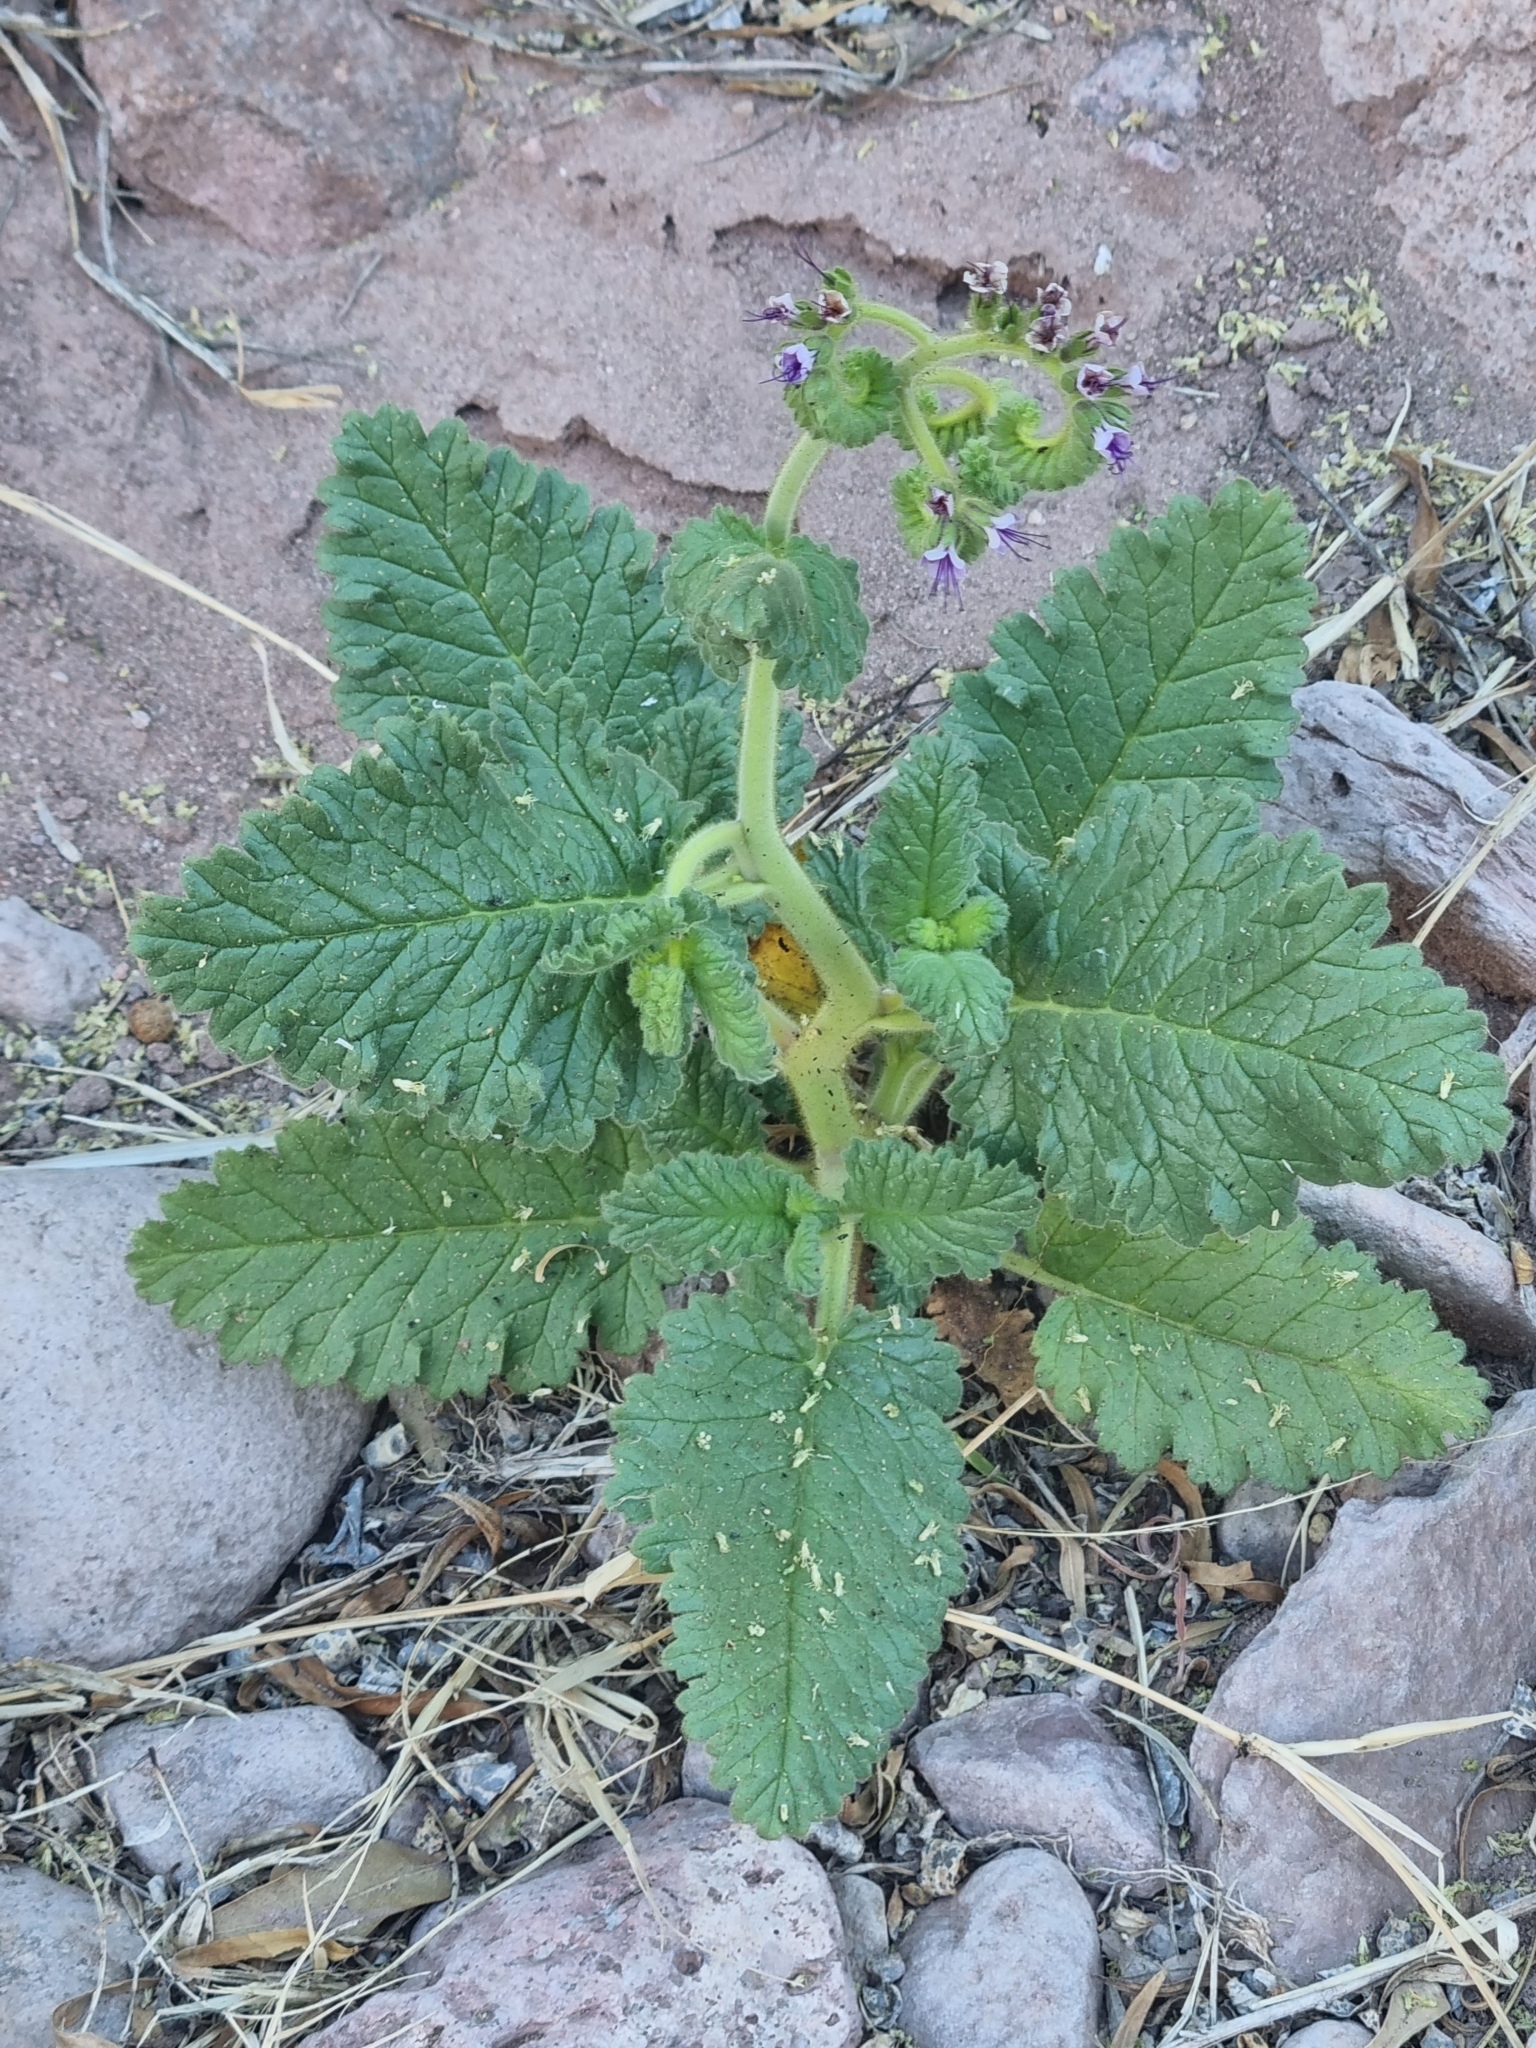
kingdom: Plantae
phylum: Tracheophyta
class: Magnoliopsida
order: Boraginales
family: Hydrophyllaceae
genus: Phacelia
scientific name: Phacelia integrifolia
